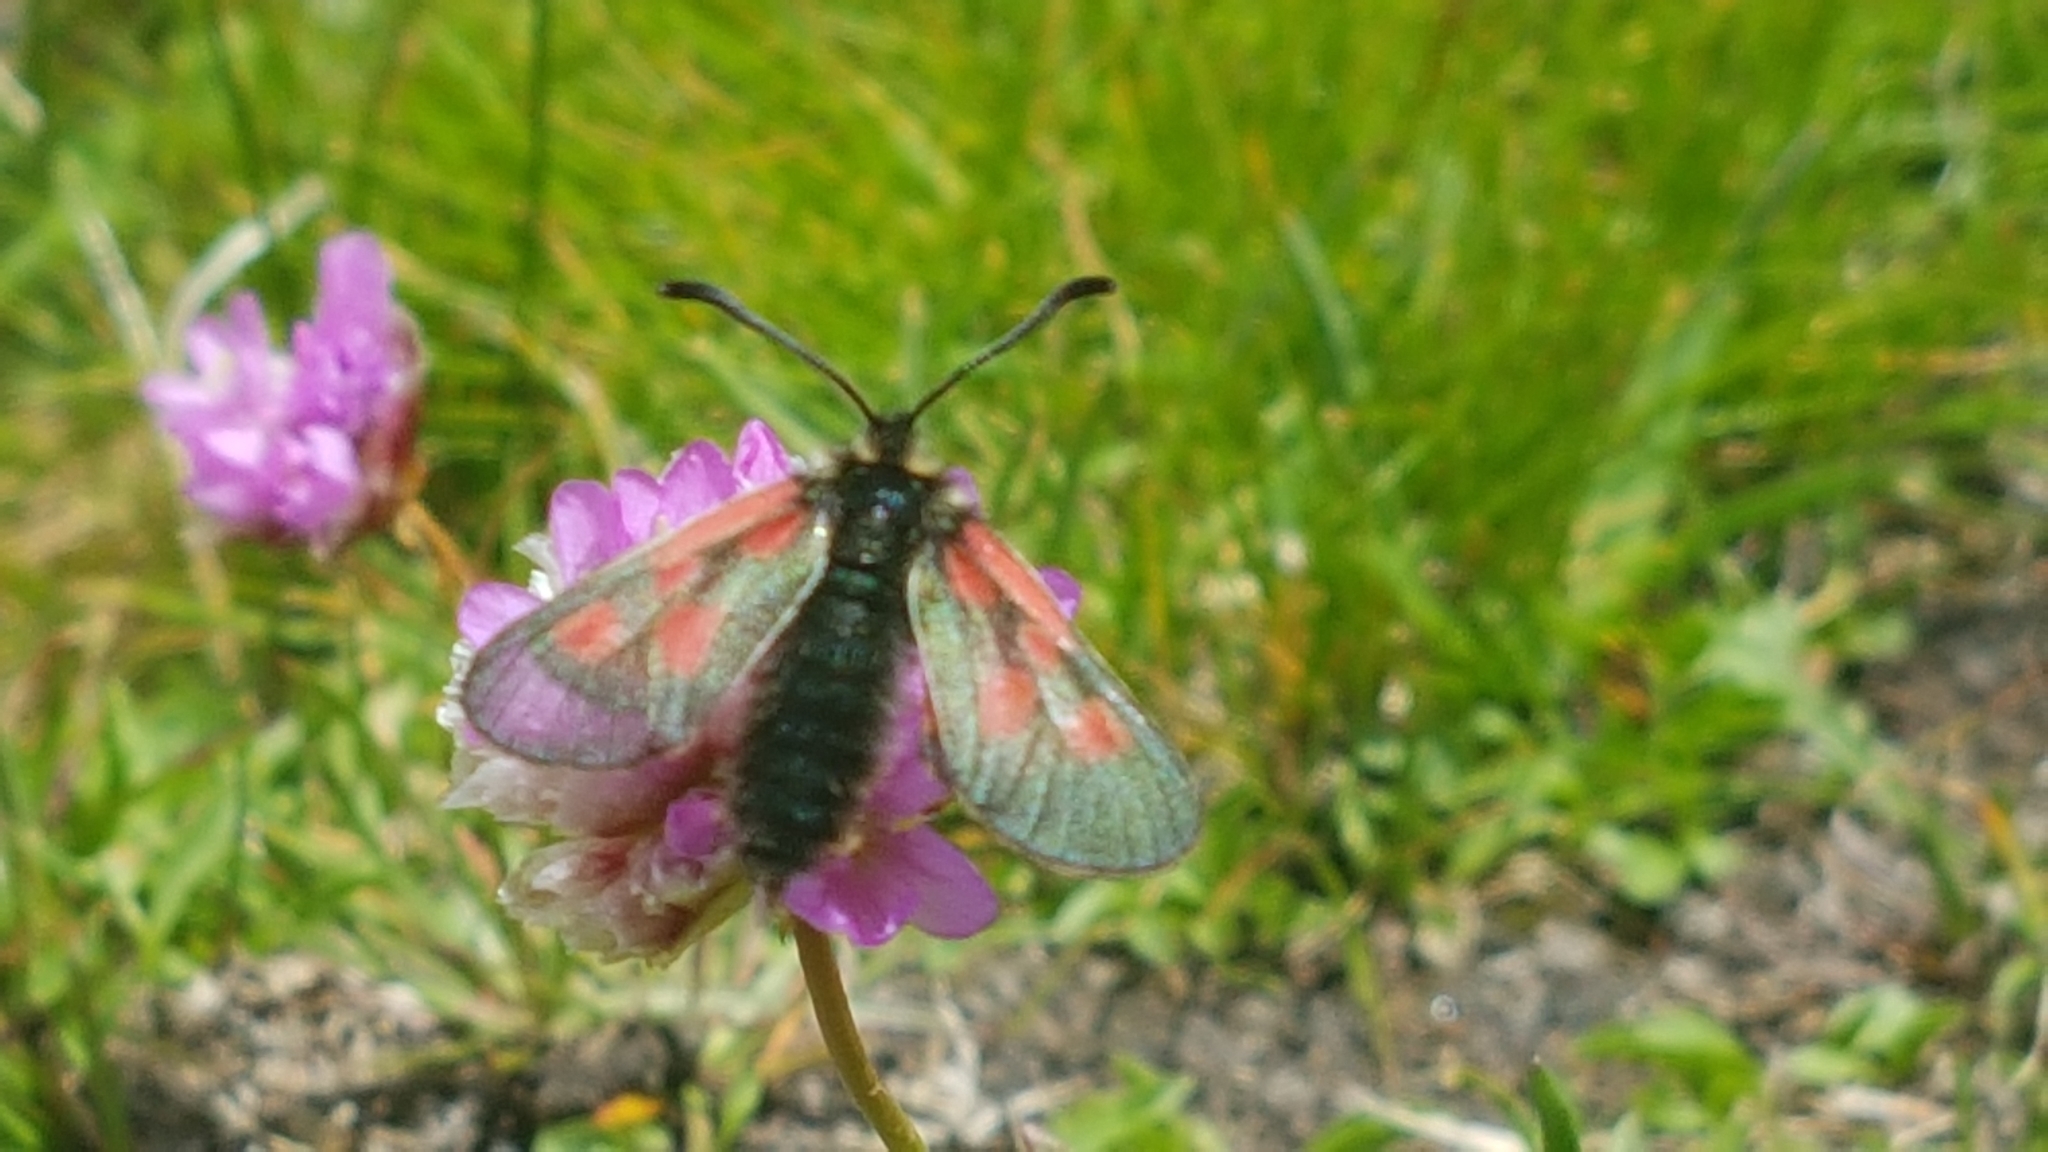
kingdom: Animalia
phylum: Arthropoda
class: Insecta
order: Lepidoptera
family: Zygaenidae
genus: Zygaena
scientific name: Zygaena exulans
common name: Scotch burnet
